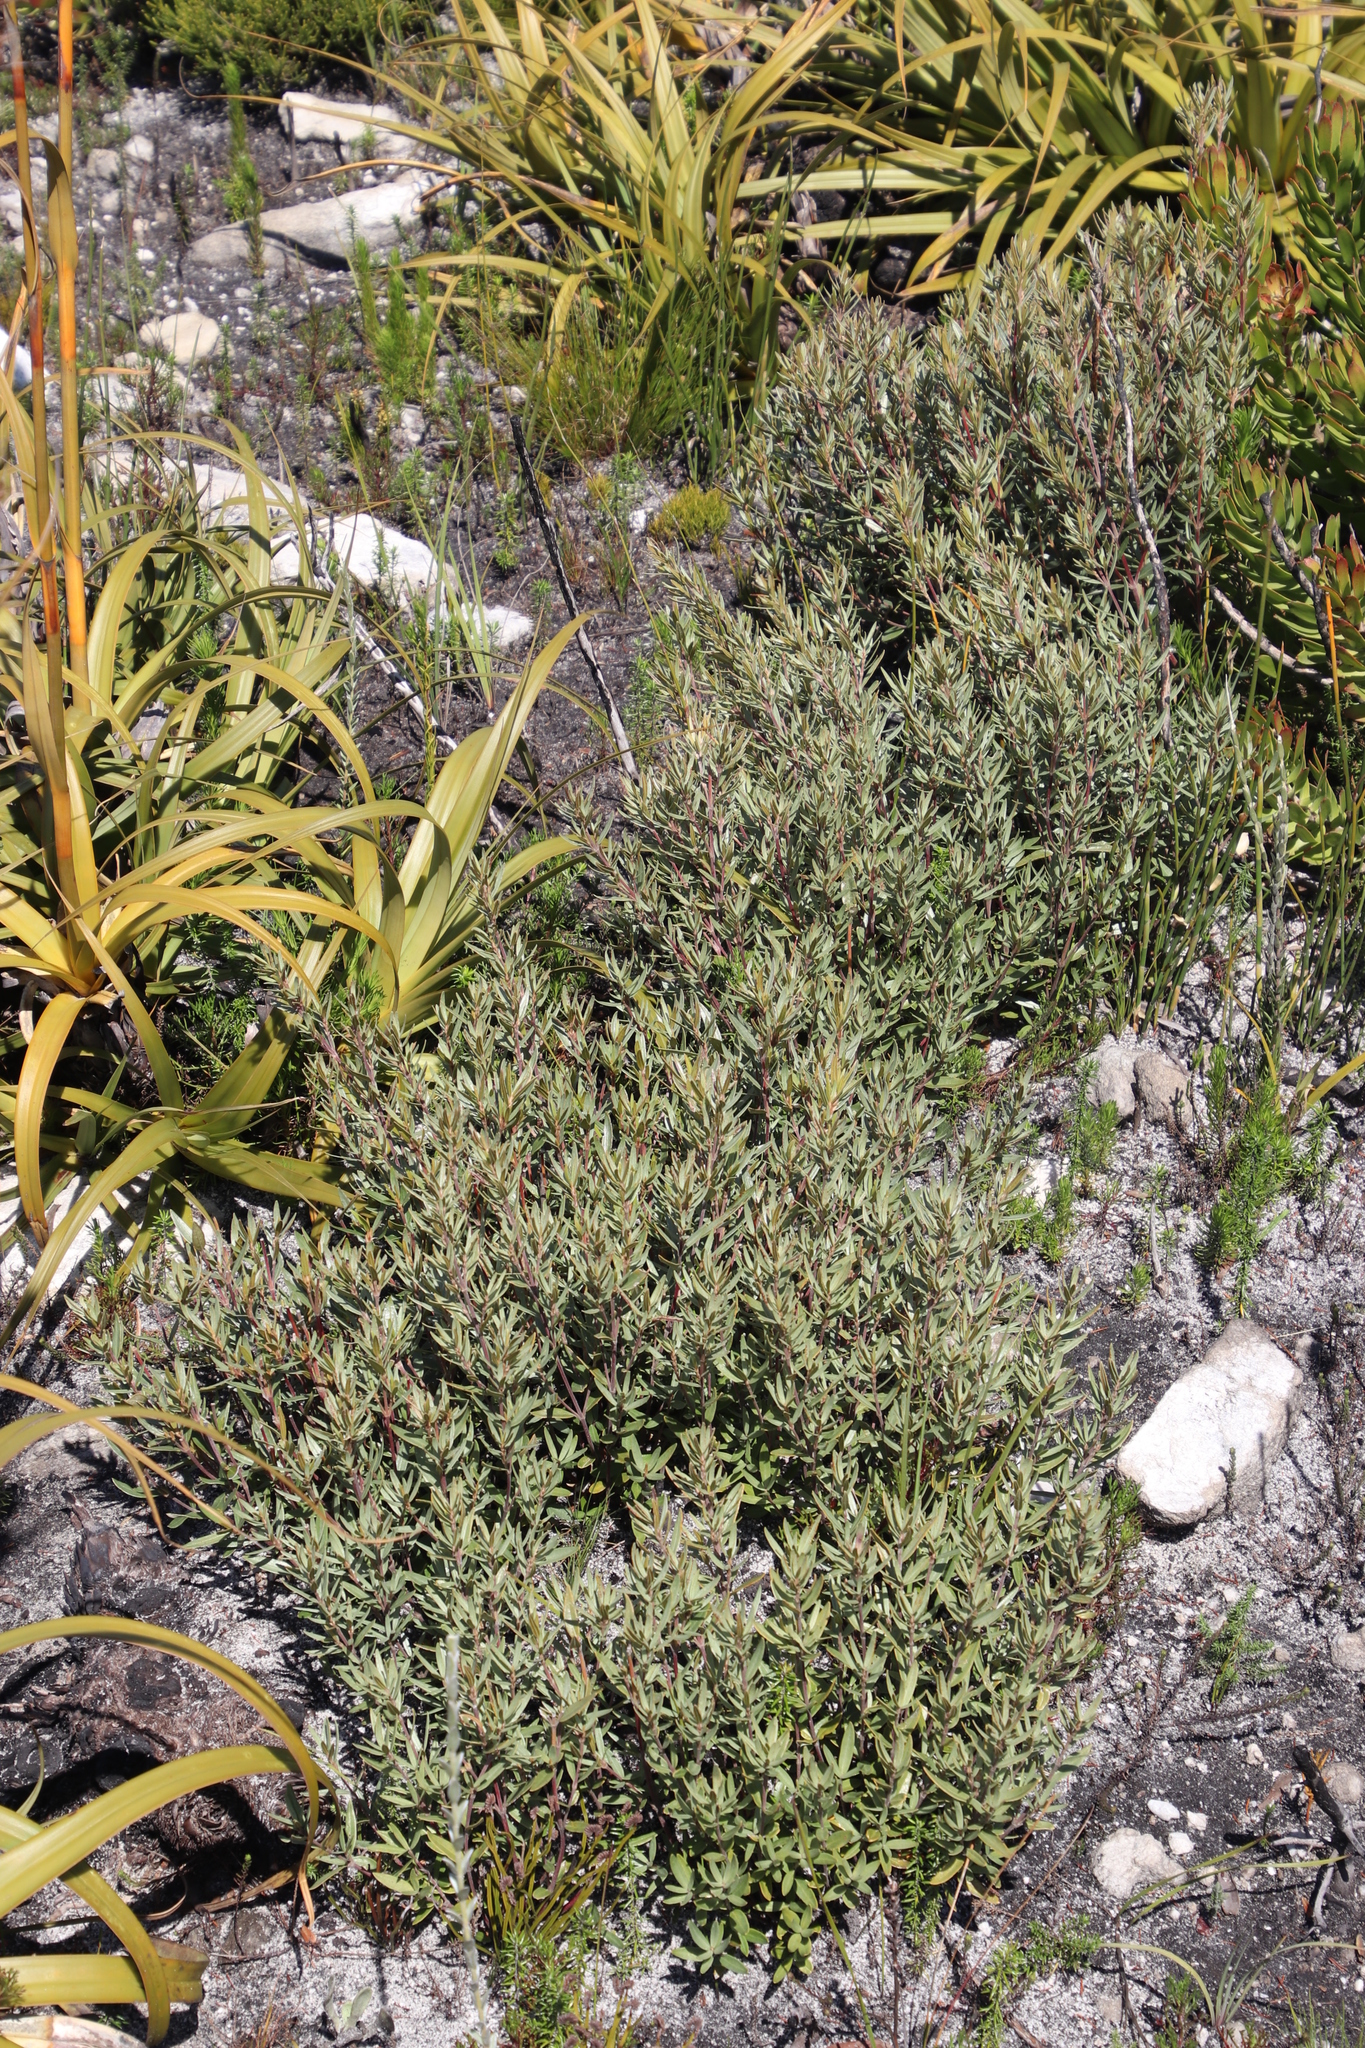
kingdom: Plantae
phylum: Tracheophyta
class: Magnoliopsida
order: Cornales
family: Grubbiaceae
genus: Grubbia
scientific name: Grubbia tomentosa
